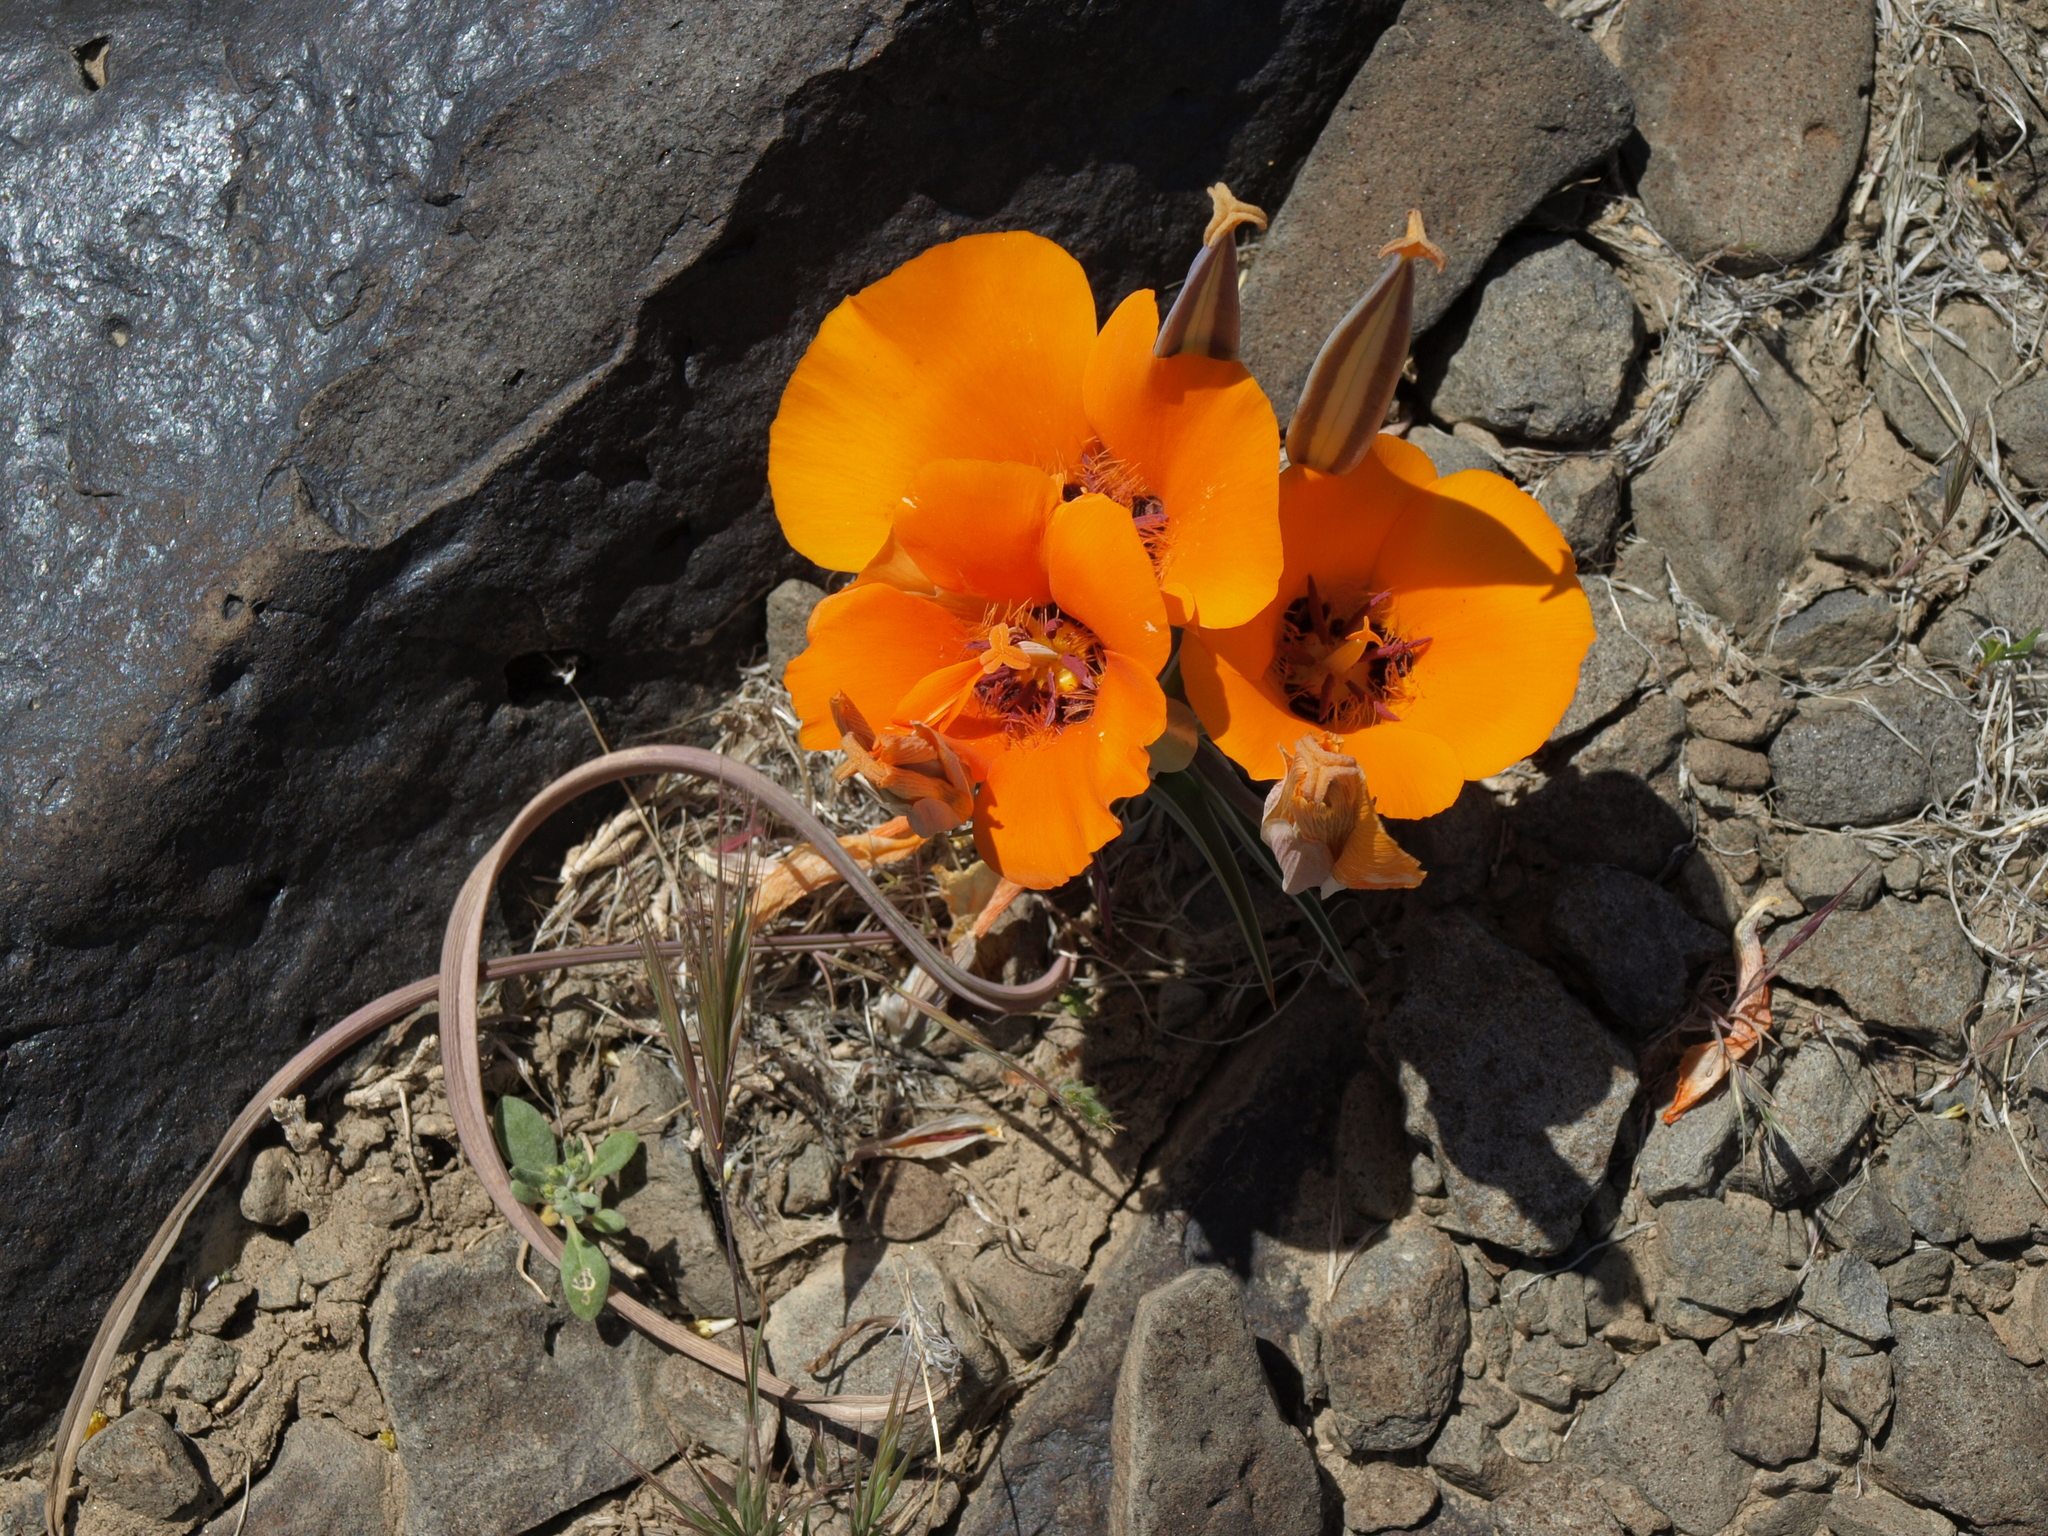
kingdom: Plantae
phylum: Tracheophyta
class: Liliopsida
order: Liliales
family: Liliaceae
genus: Calochortus
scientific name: Calochortus kennedyi
